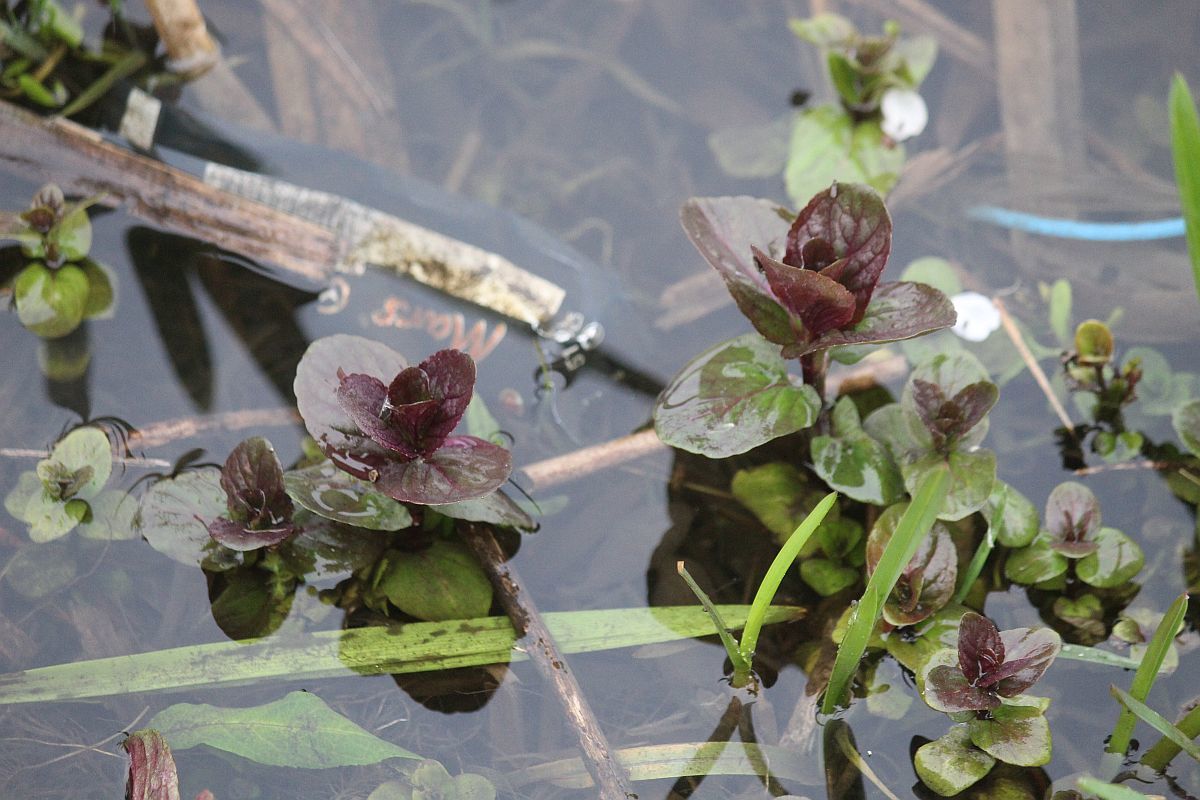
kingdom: Plantae
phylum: Tracheophyta
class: Magnoliopsida
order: Lamiales
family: Lamiaceae
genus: Mentha
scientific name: Mentha aquatica
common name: Water mint
